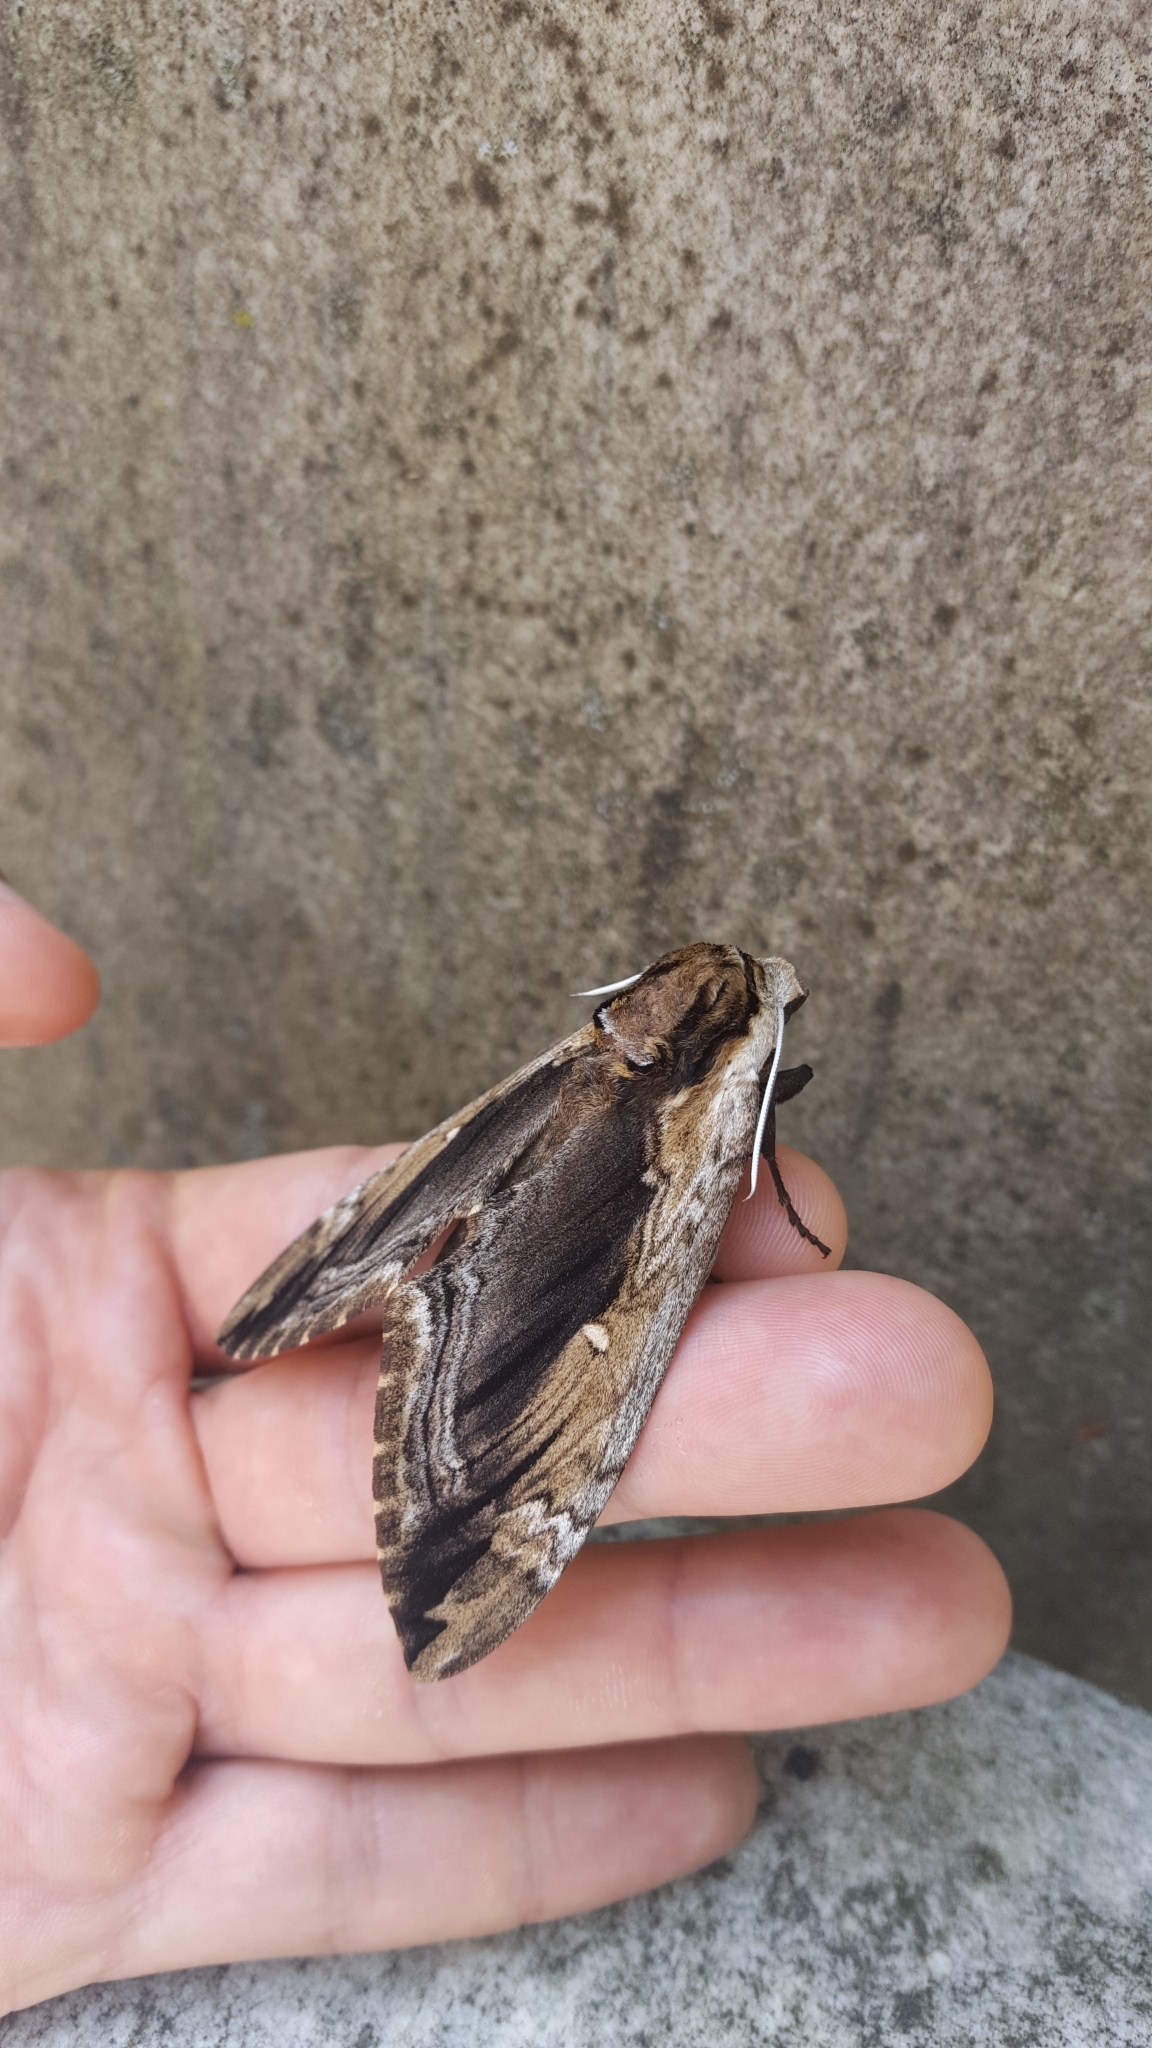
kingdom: Animalia
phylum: Arthropoda
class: Insecta
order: Lepidoptera
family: Sphingidae
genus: Ceratomia
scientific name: Ceratomia amyntor
